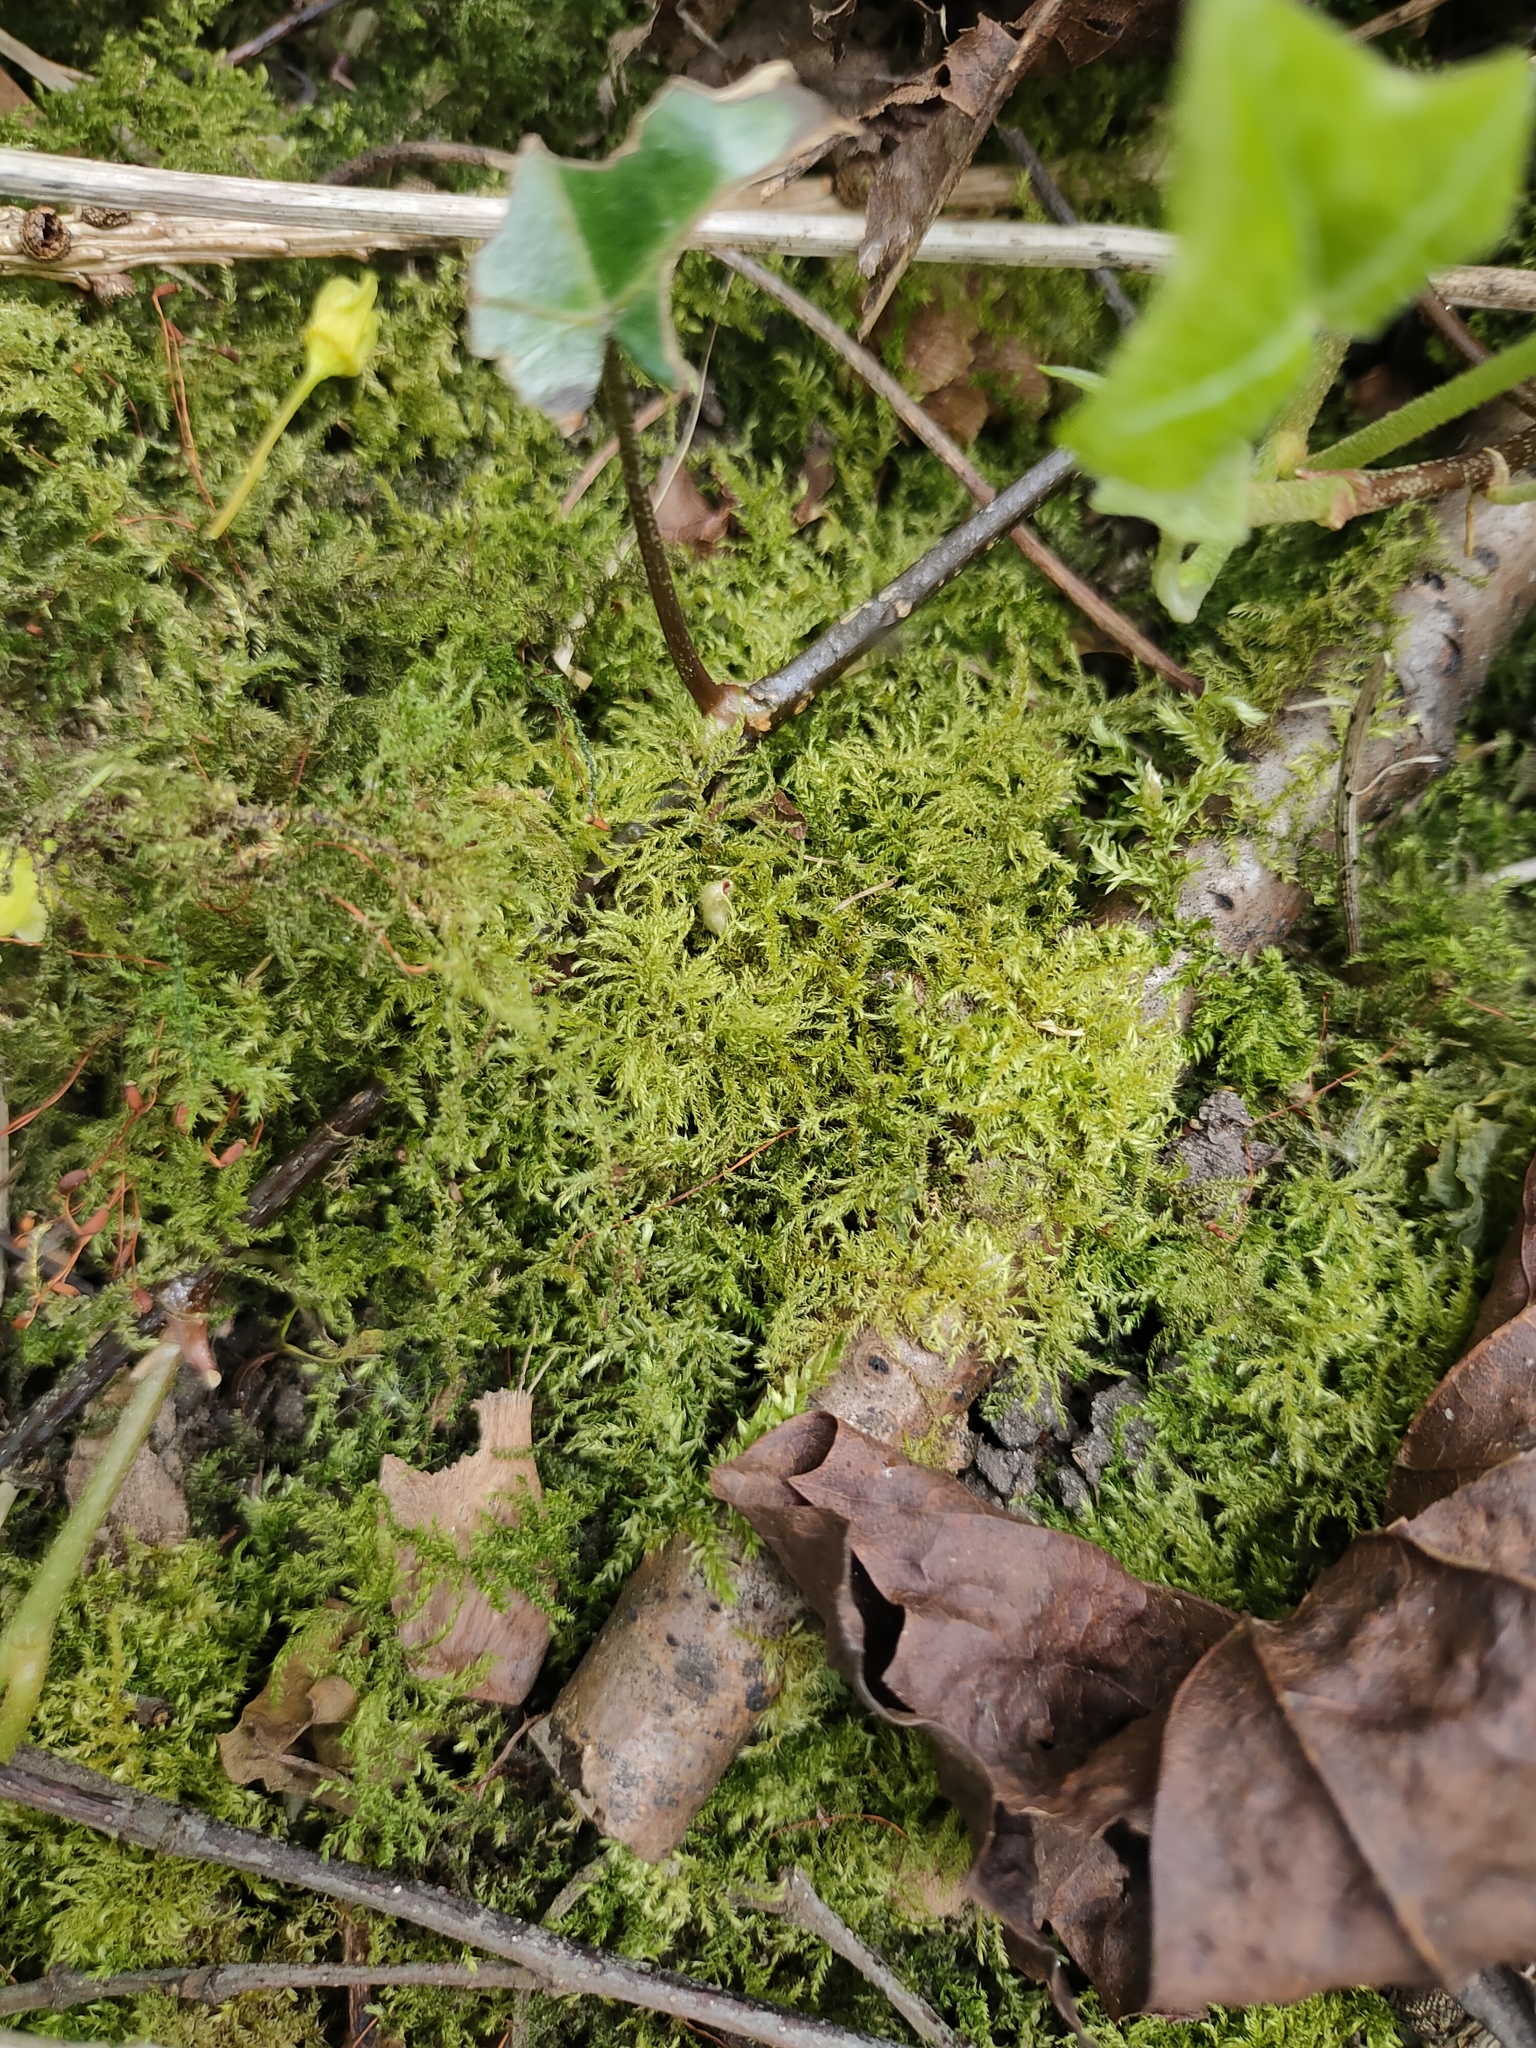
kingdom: Plantae
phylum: Bryophyta
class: Bryopsida
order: Hypnales
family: Brachytheciaceae
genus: Kindbergia
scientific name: Kindbergia praelonga
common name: Slender beaked moss
